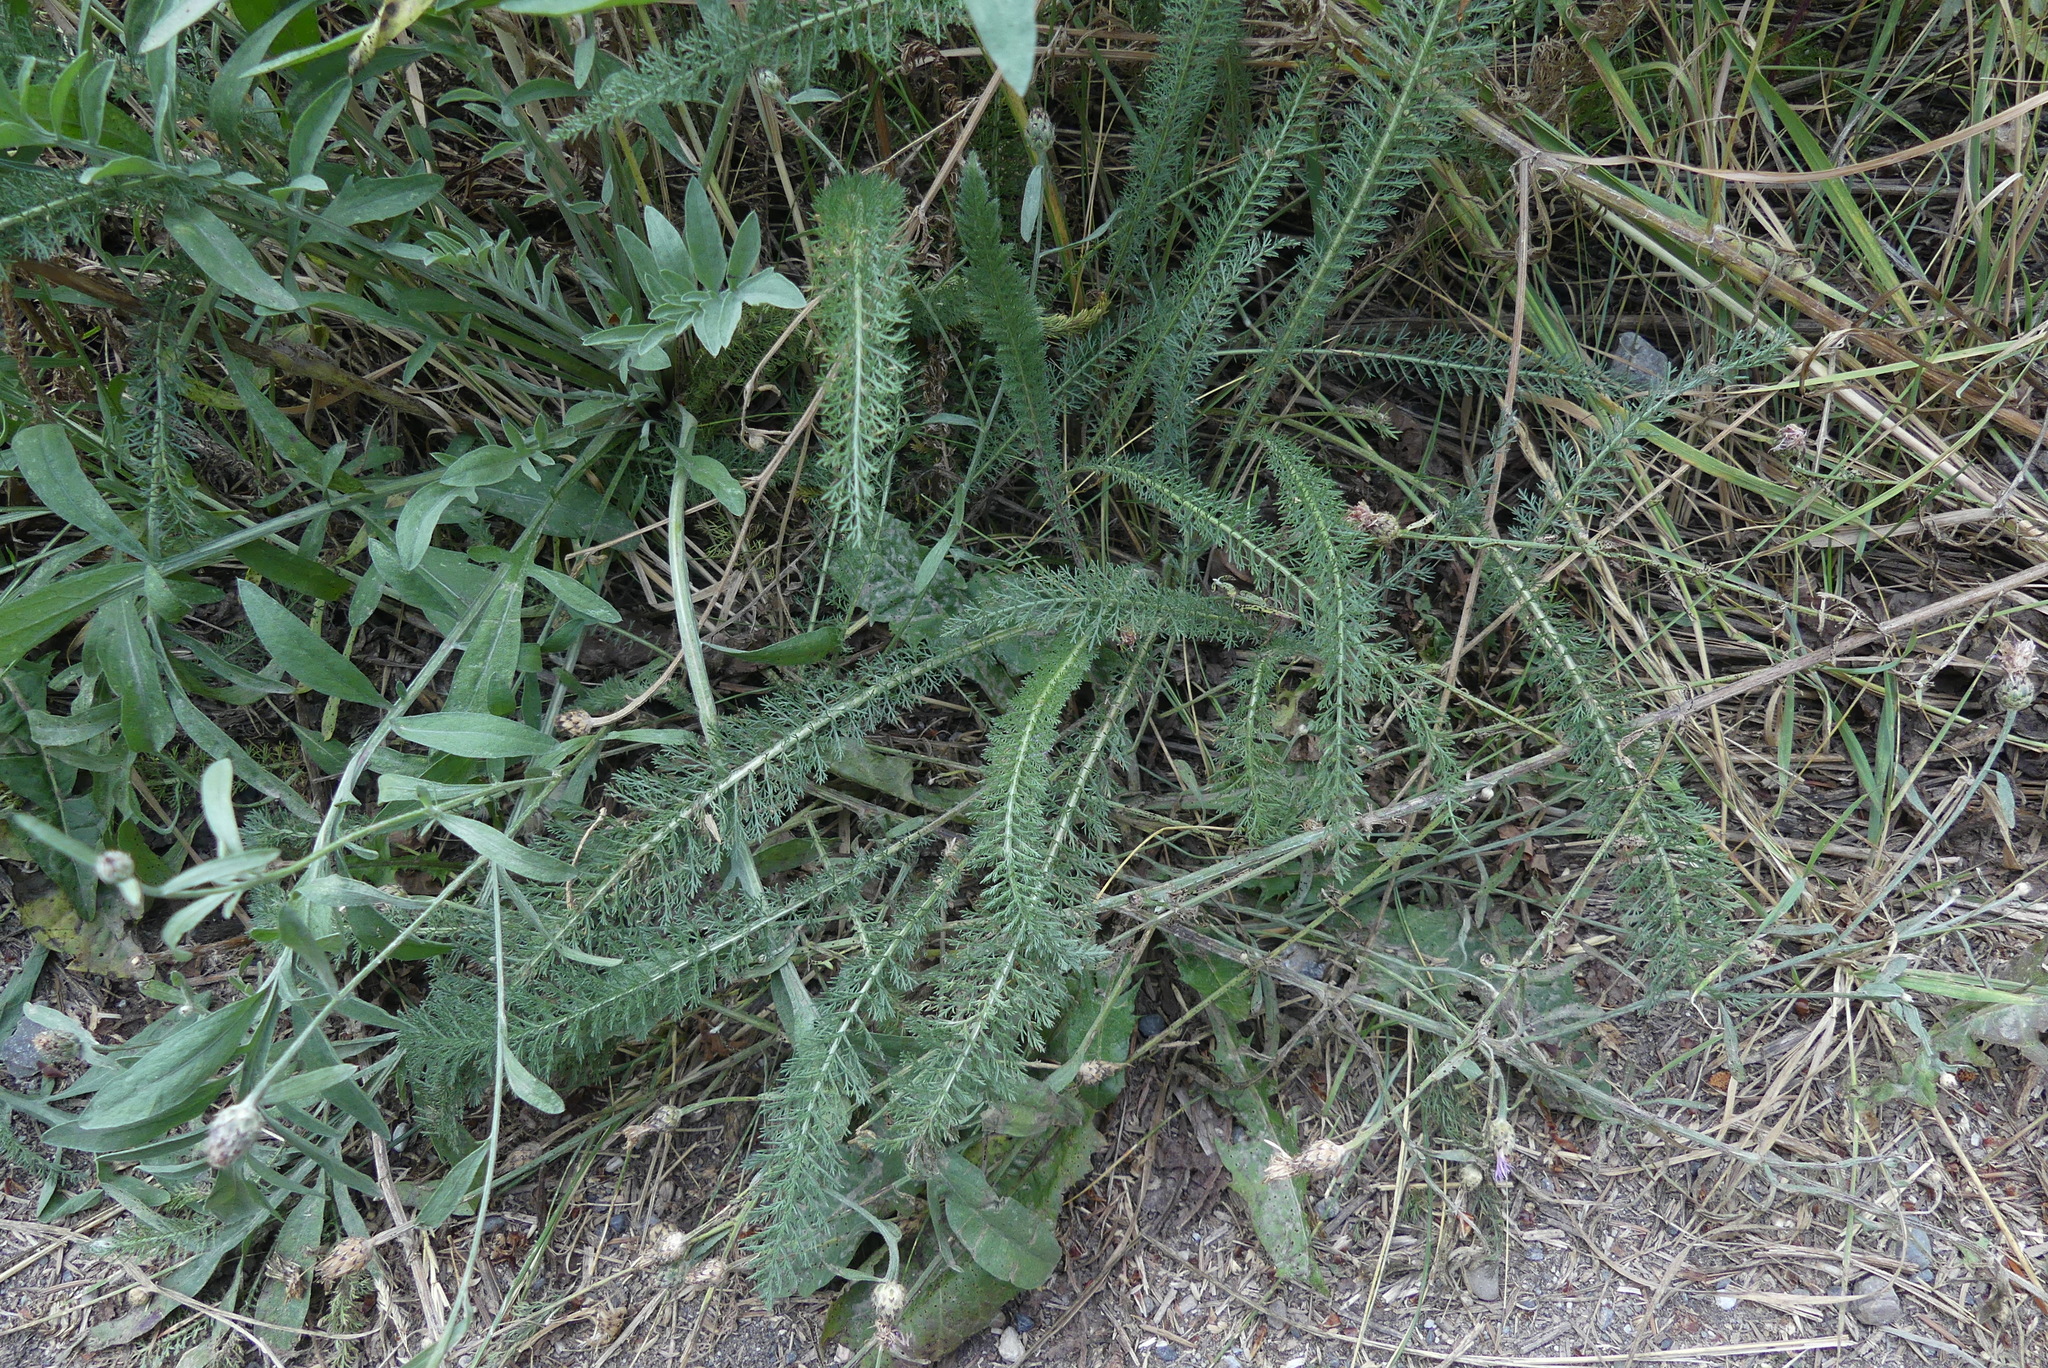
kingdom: Plantae
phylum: Tracheophyta
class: Magnoliopsida
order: Asterales
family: Asteraceae
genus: Achillea
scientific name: Achillea millefolium
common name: Yarrow
